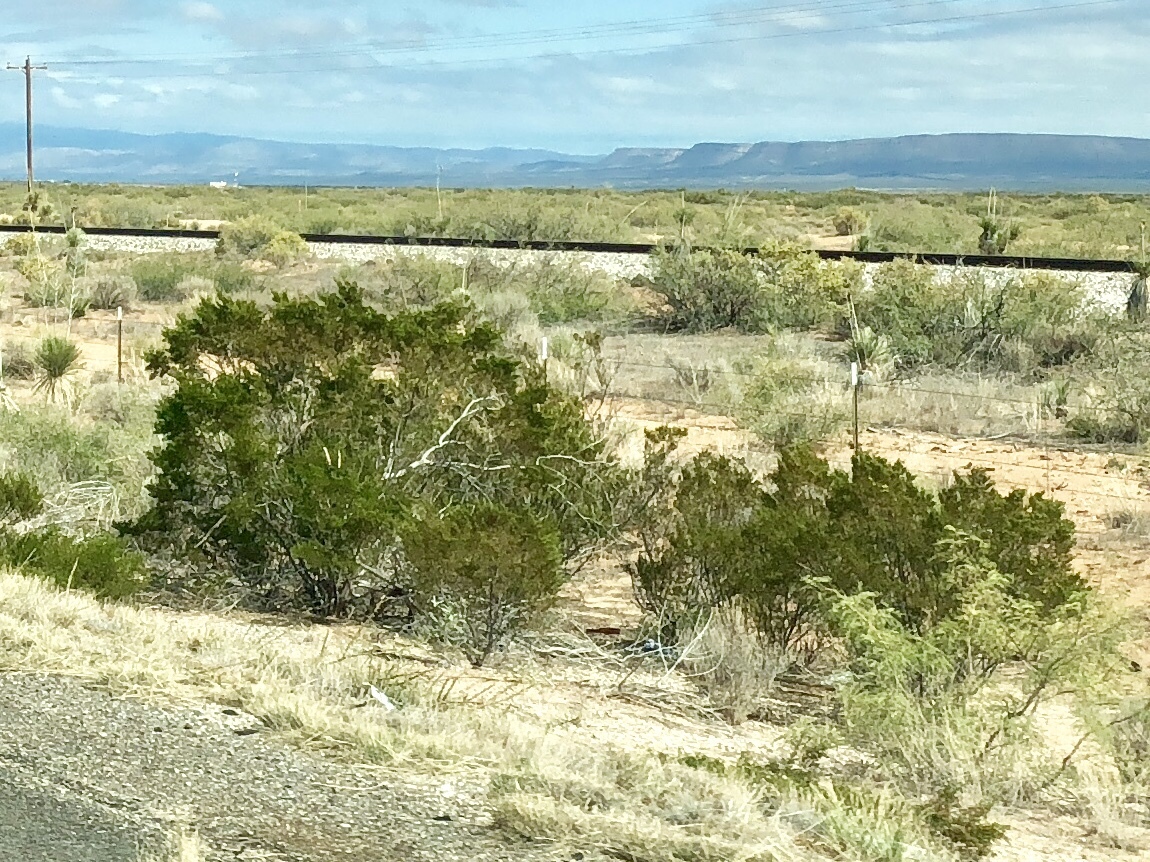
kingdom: Plantae
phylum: Tracheophyta
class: Magnoliopsida
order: Zygophyllales
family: Zygophyllaceae
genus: Larrea
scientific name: Larrea tridentata
